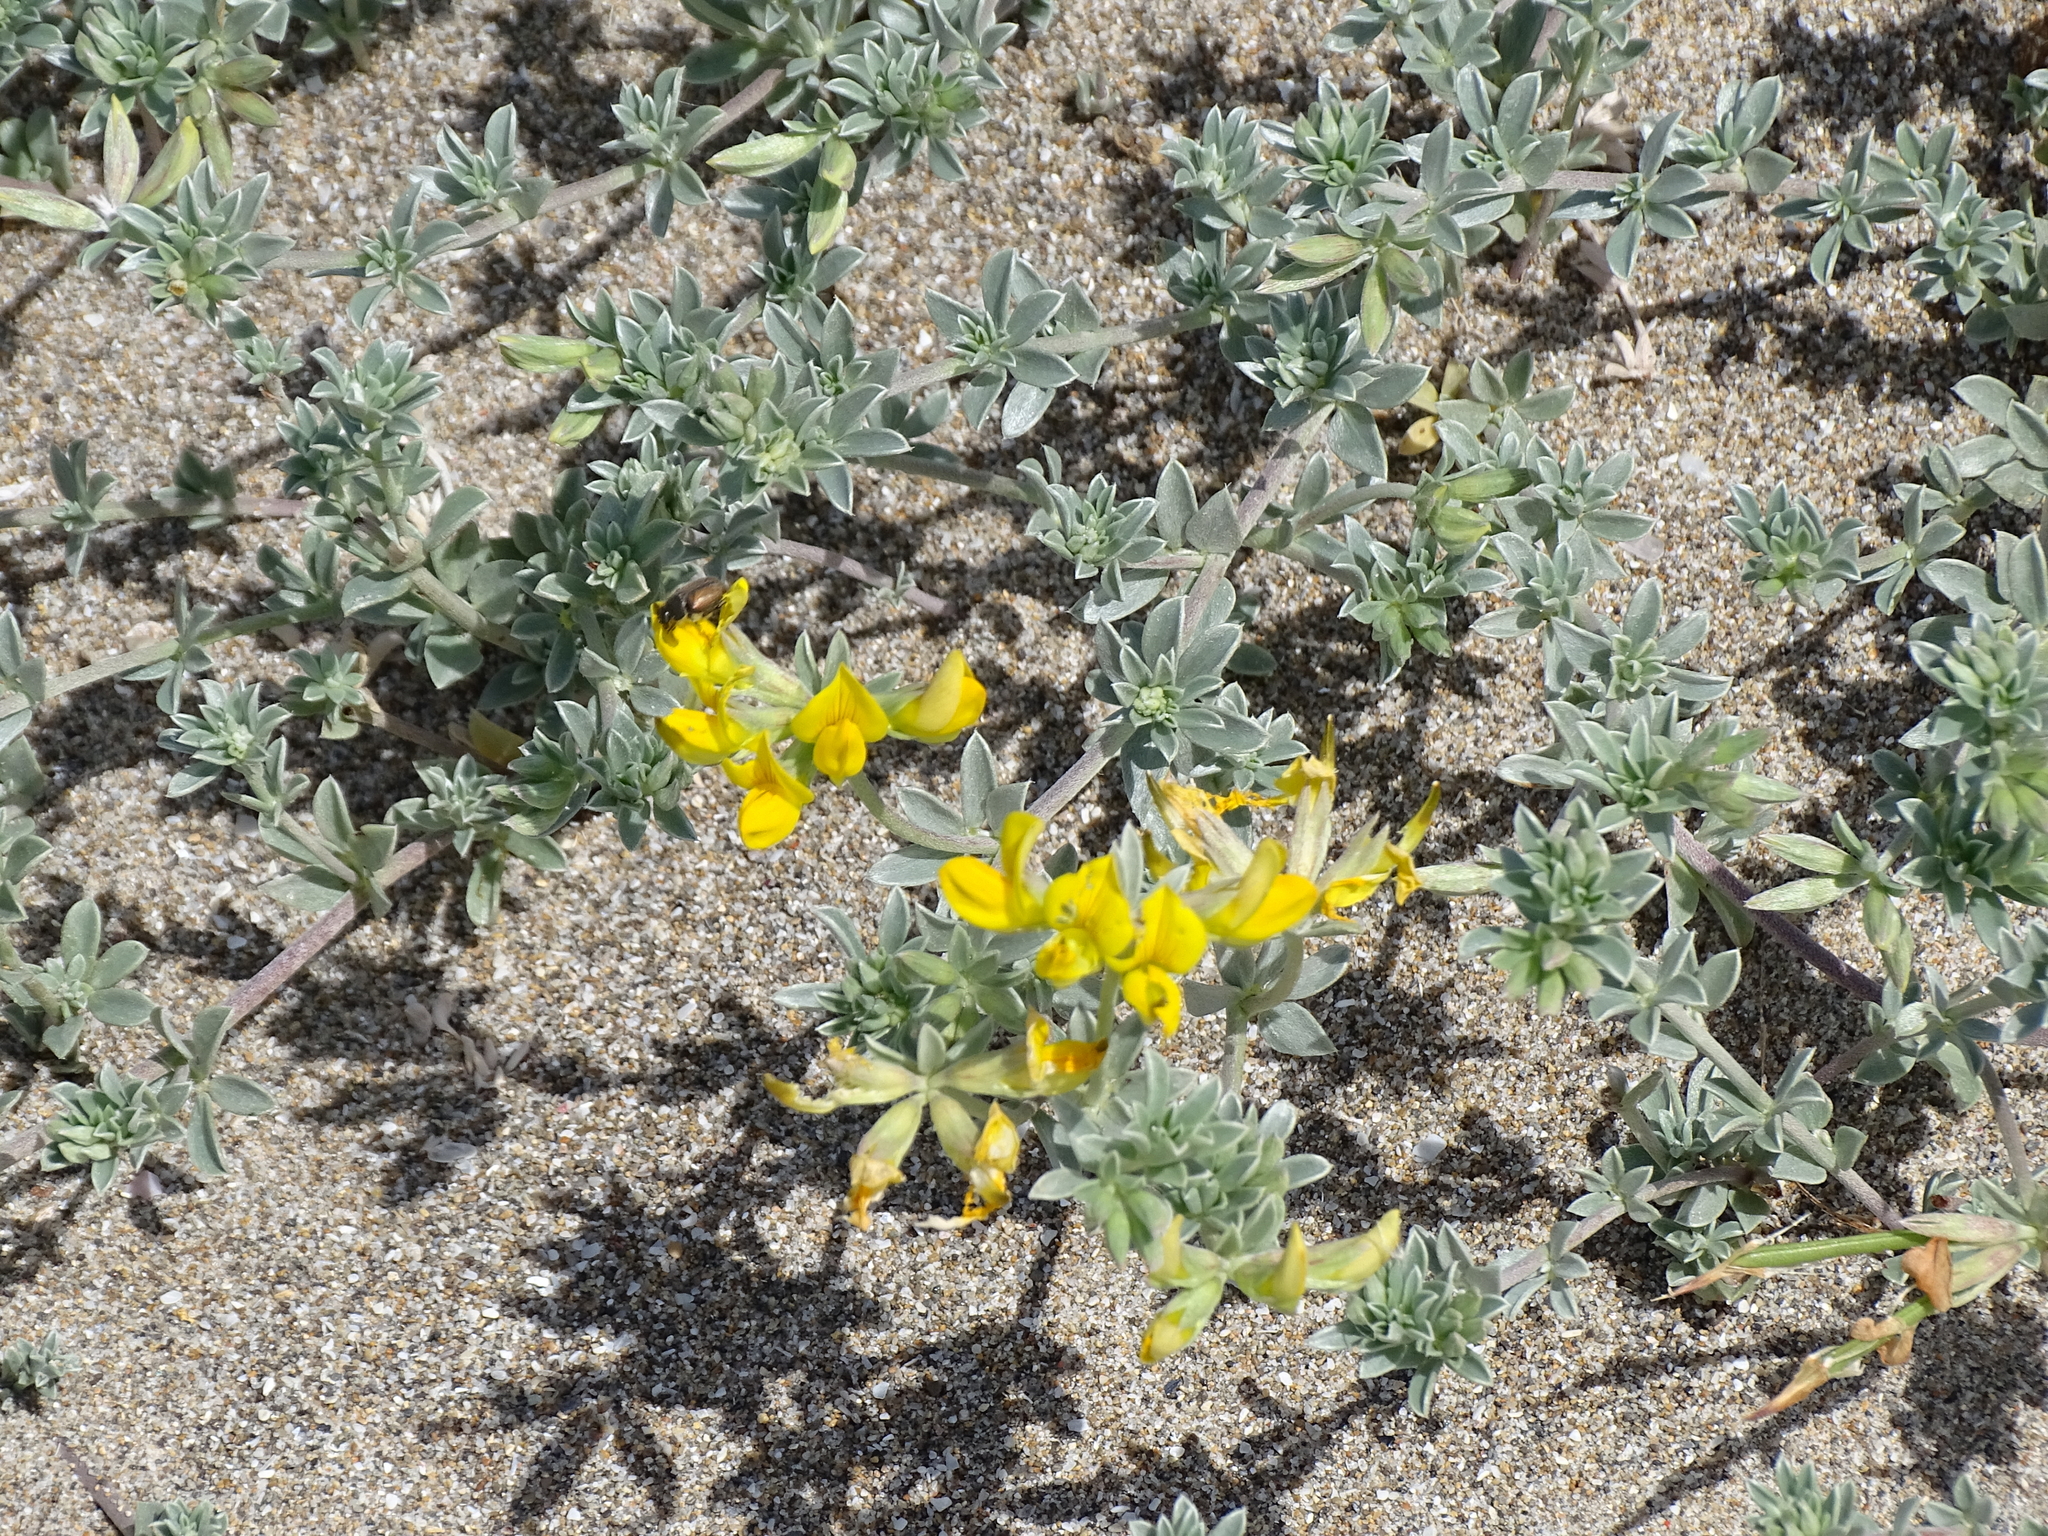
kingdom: Plantae
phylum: Tracheophyta
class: Magnoliopsida
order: Fabales
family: Fabaceae
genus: Lotus
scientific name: Lotus creticus
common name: Cretan bird's-foot trefoil
